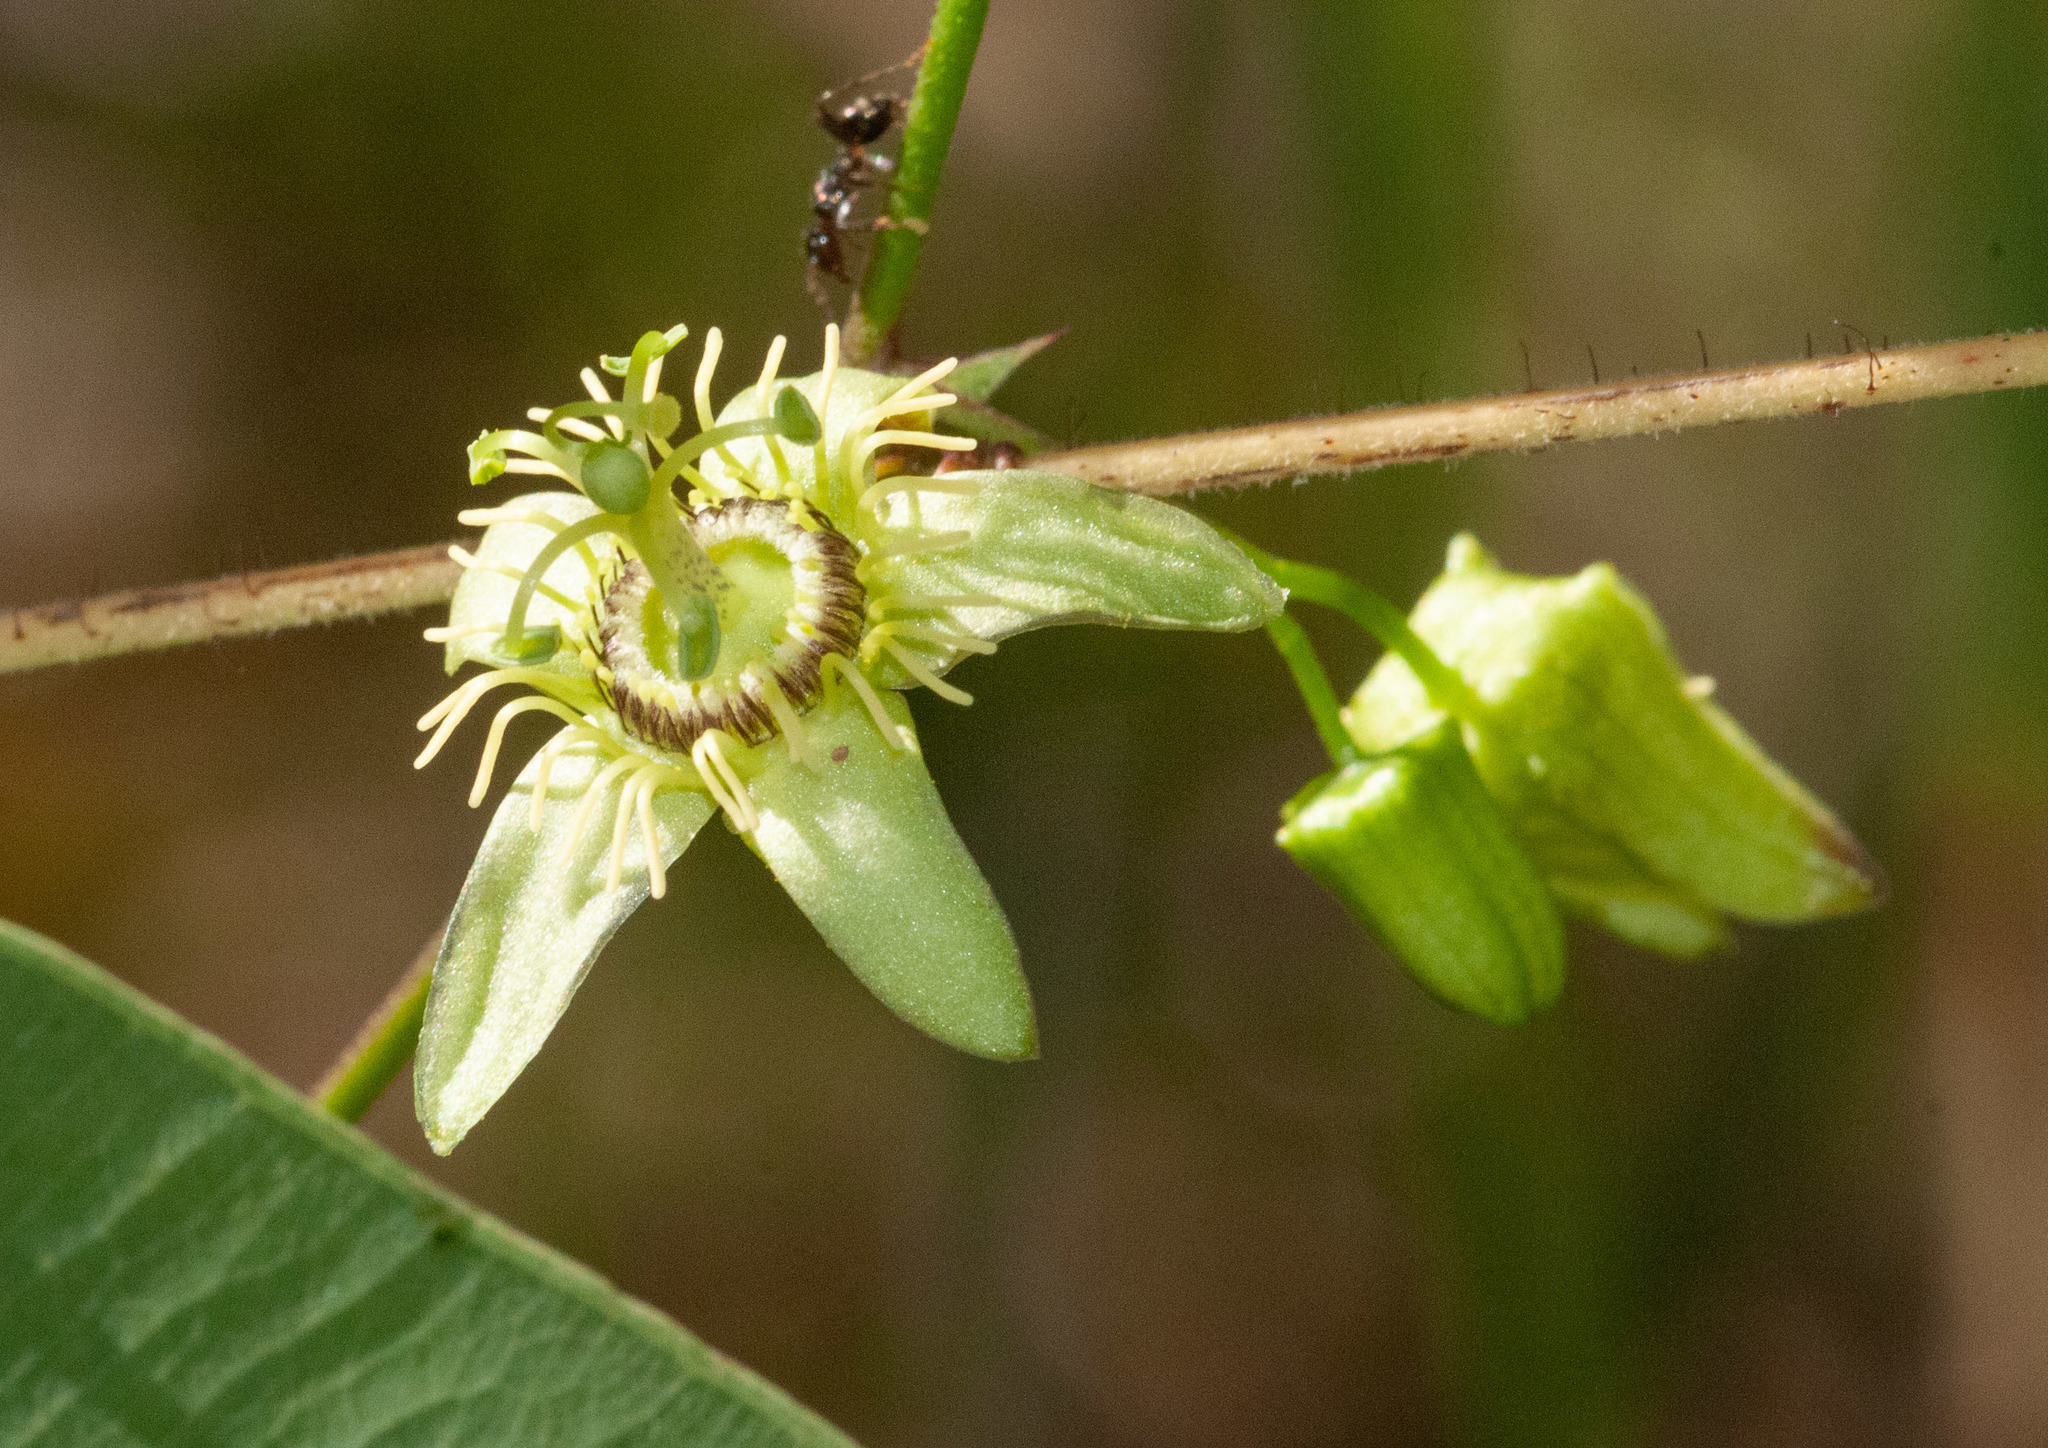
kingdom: Plantae
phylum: Tracheophyta
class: Magnoliopsida
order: Malpighiales
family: Passifloraceae
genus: Passiflora
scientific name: Passiflora suberosa
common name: Wild passionfruit
